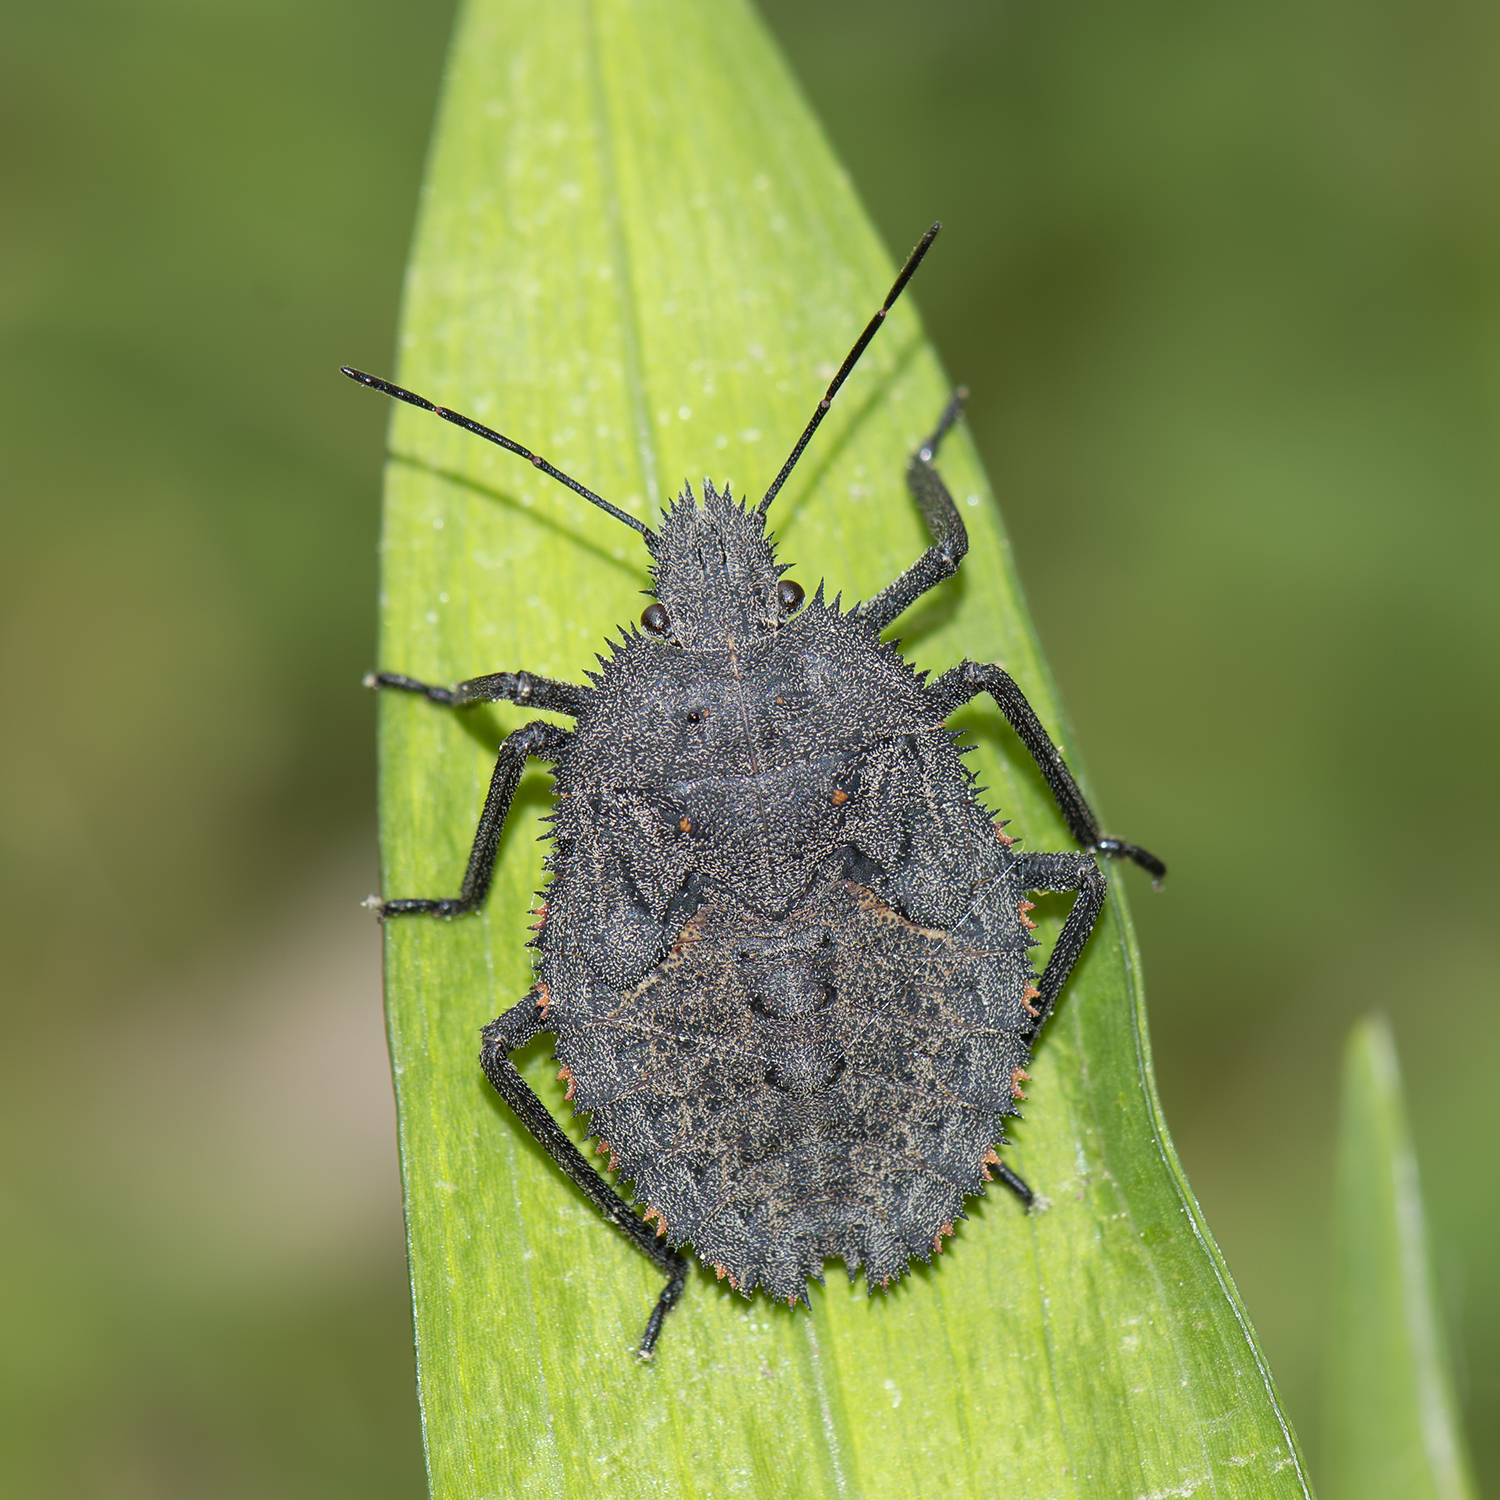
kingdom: Animalia
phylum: Arthropoda
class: Insecta
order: Hemiptera
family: Pentatomidae
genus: Mustha
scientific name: Mustha spinosula
